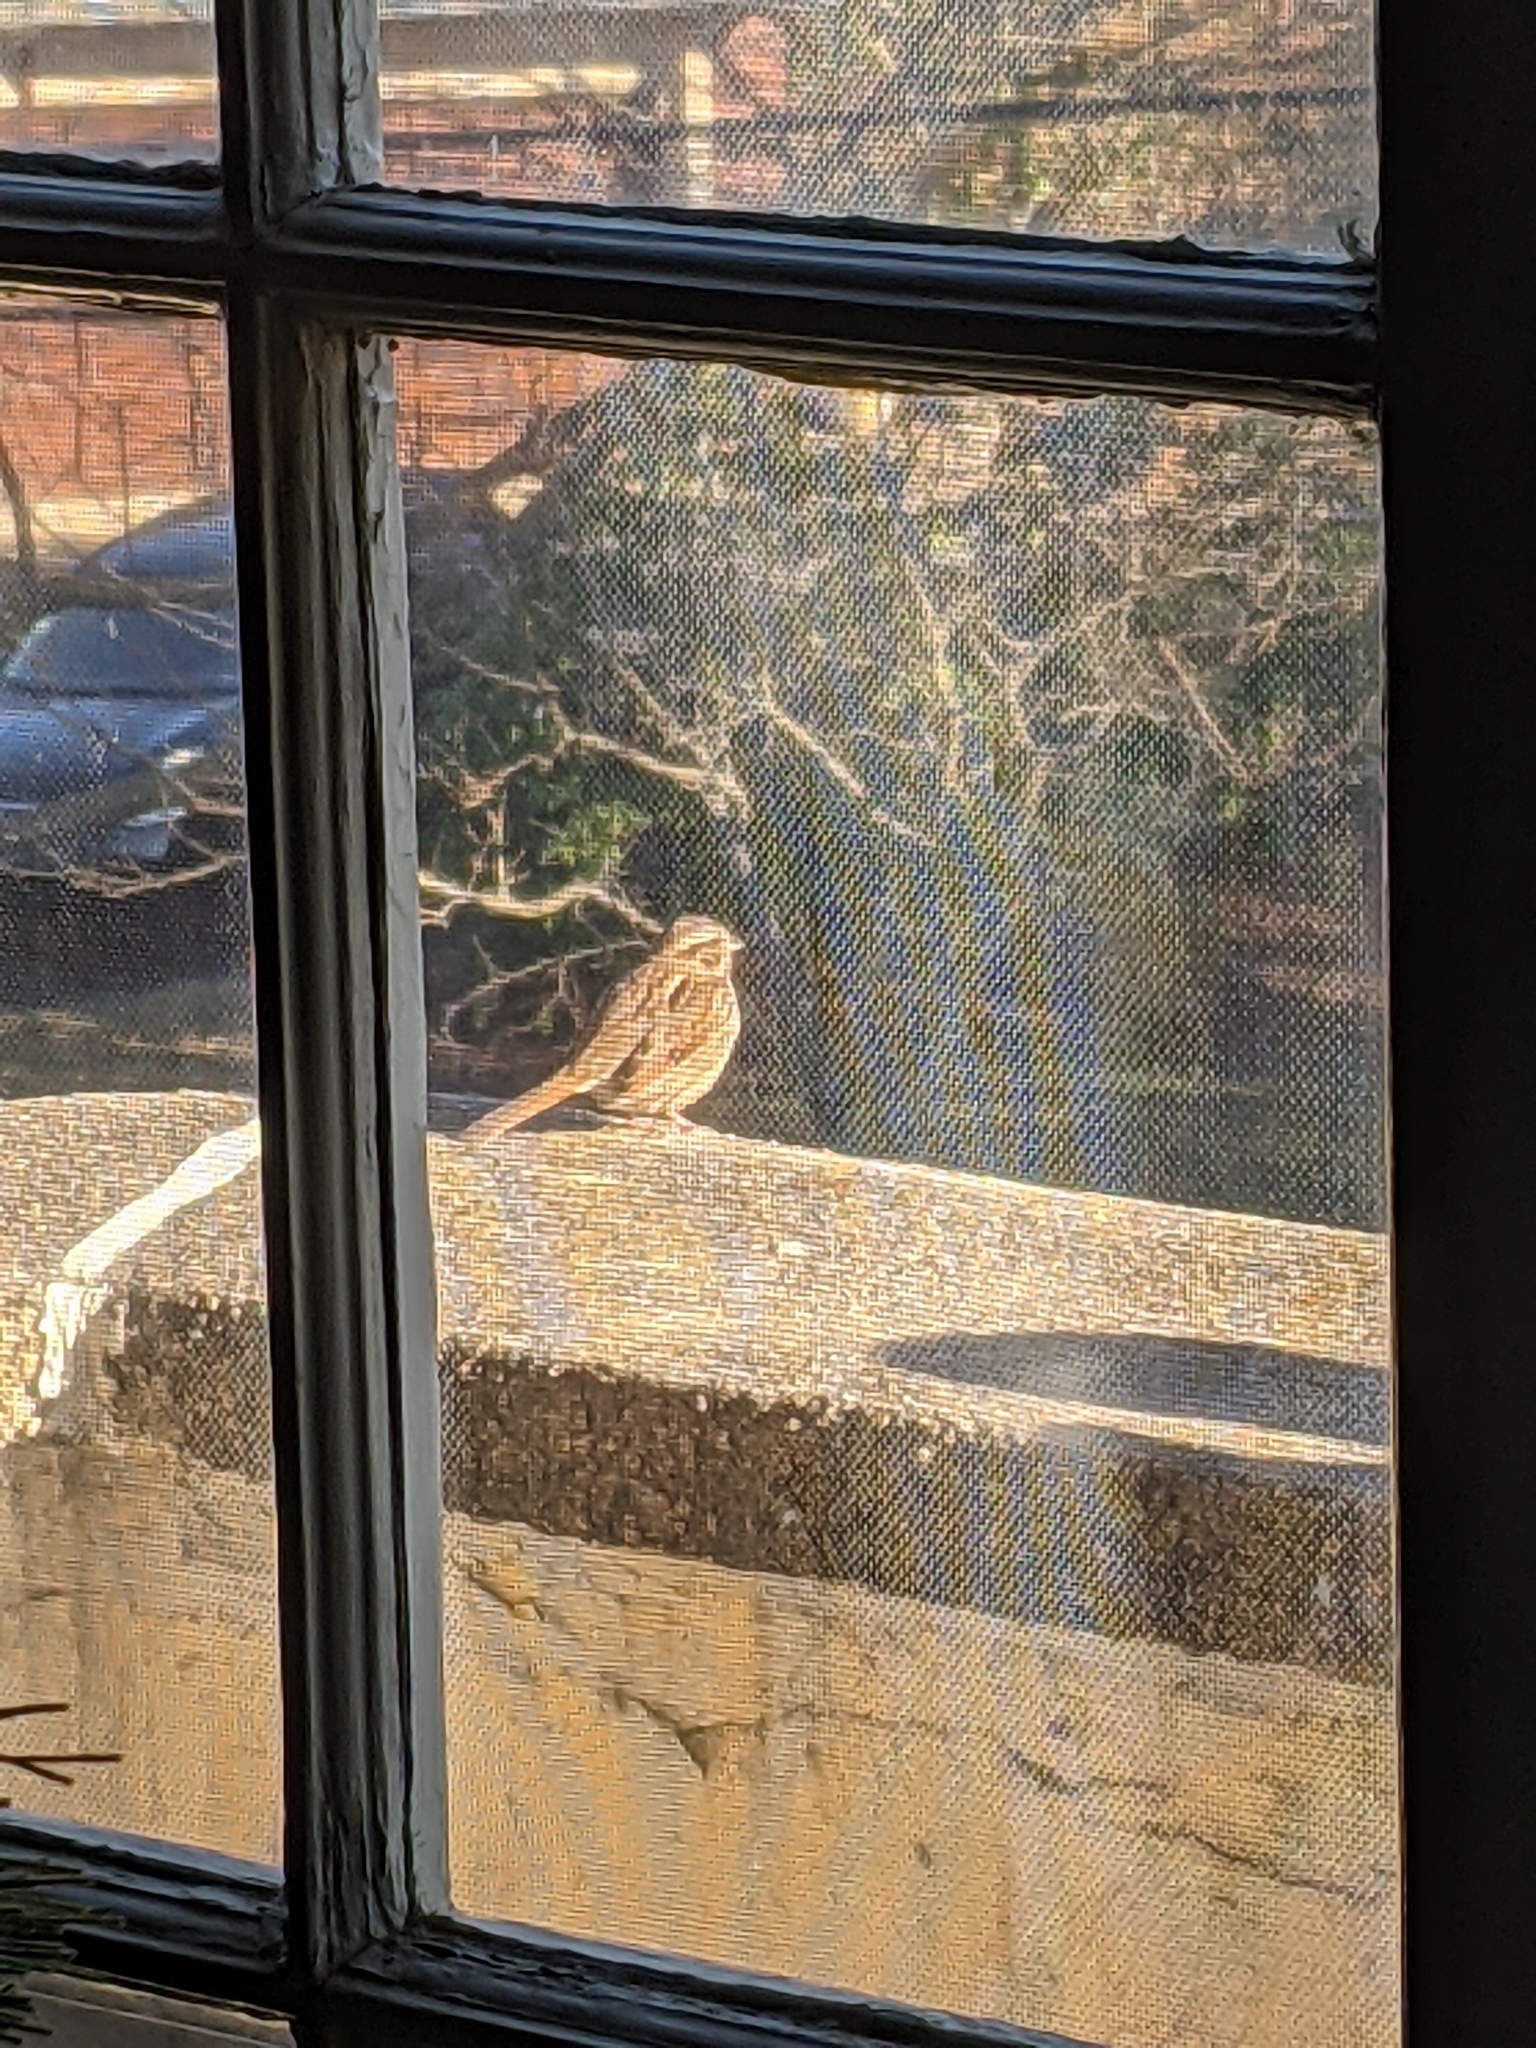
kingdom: Animalia
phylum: Chordata
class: Aves
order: Passeriformes
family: Passerellidae
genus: Melospiza
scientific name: Melospiza melodia
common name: Song sparrow
